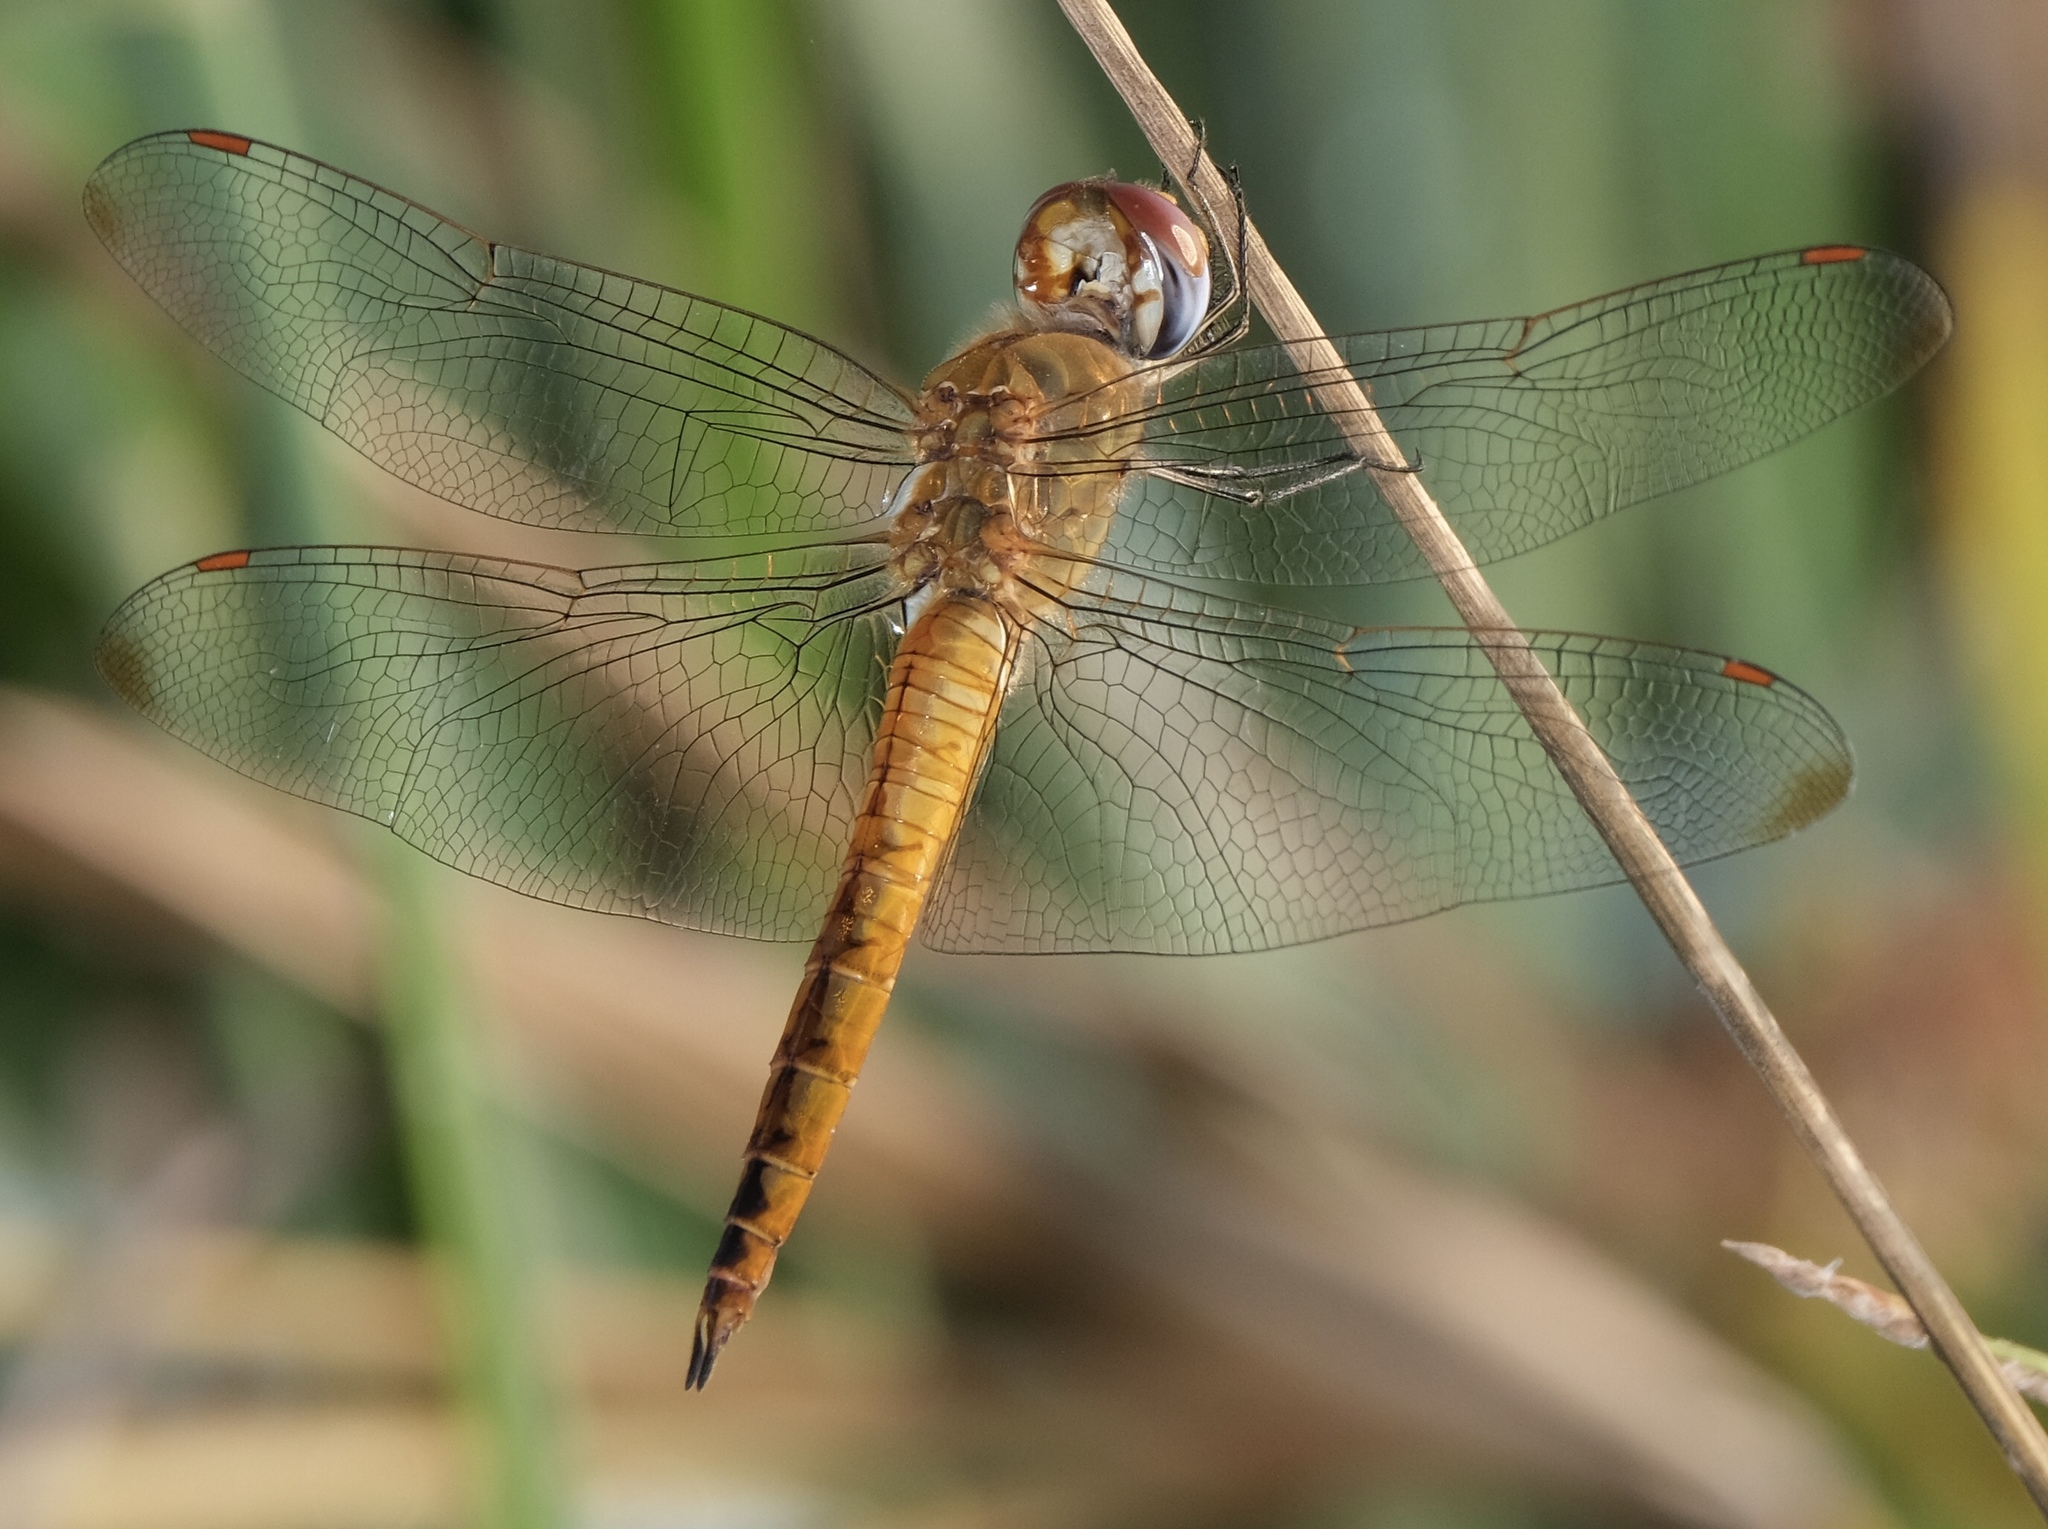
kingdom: Animalia
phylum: Arthropoda
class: Insecta
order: Odonata
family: Libellulidae
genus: Pantala
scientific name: Pantala flavescens
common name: Wandering glider
